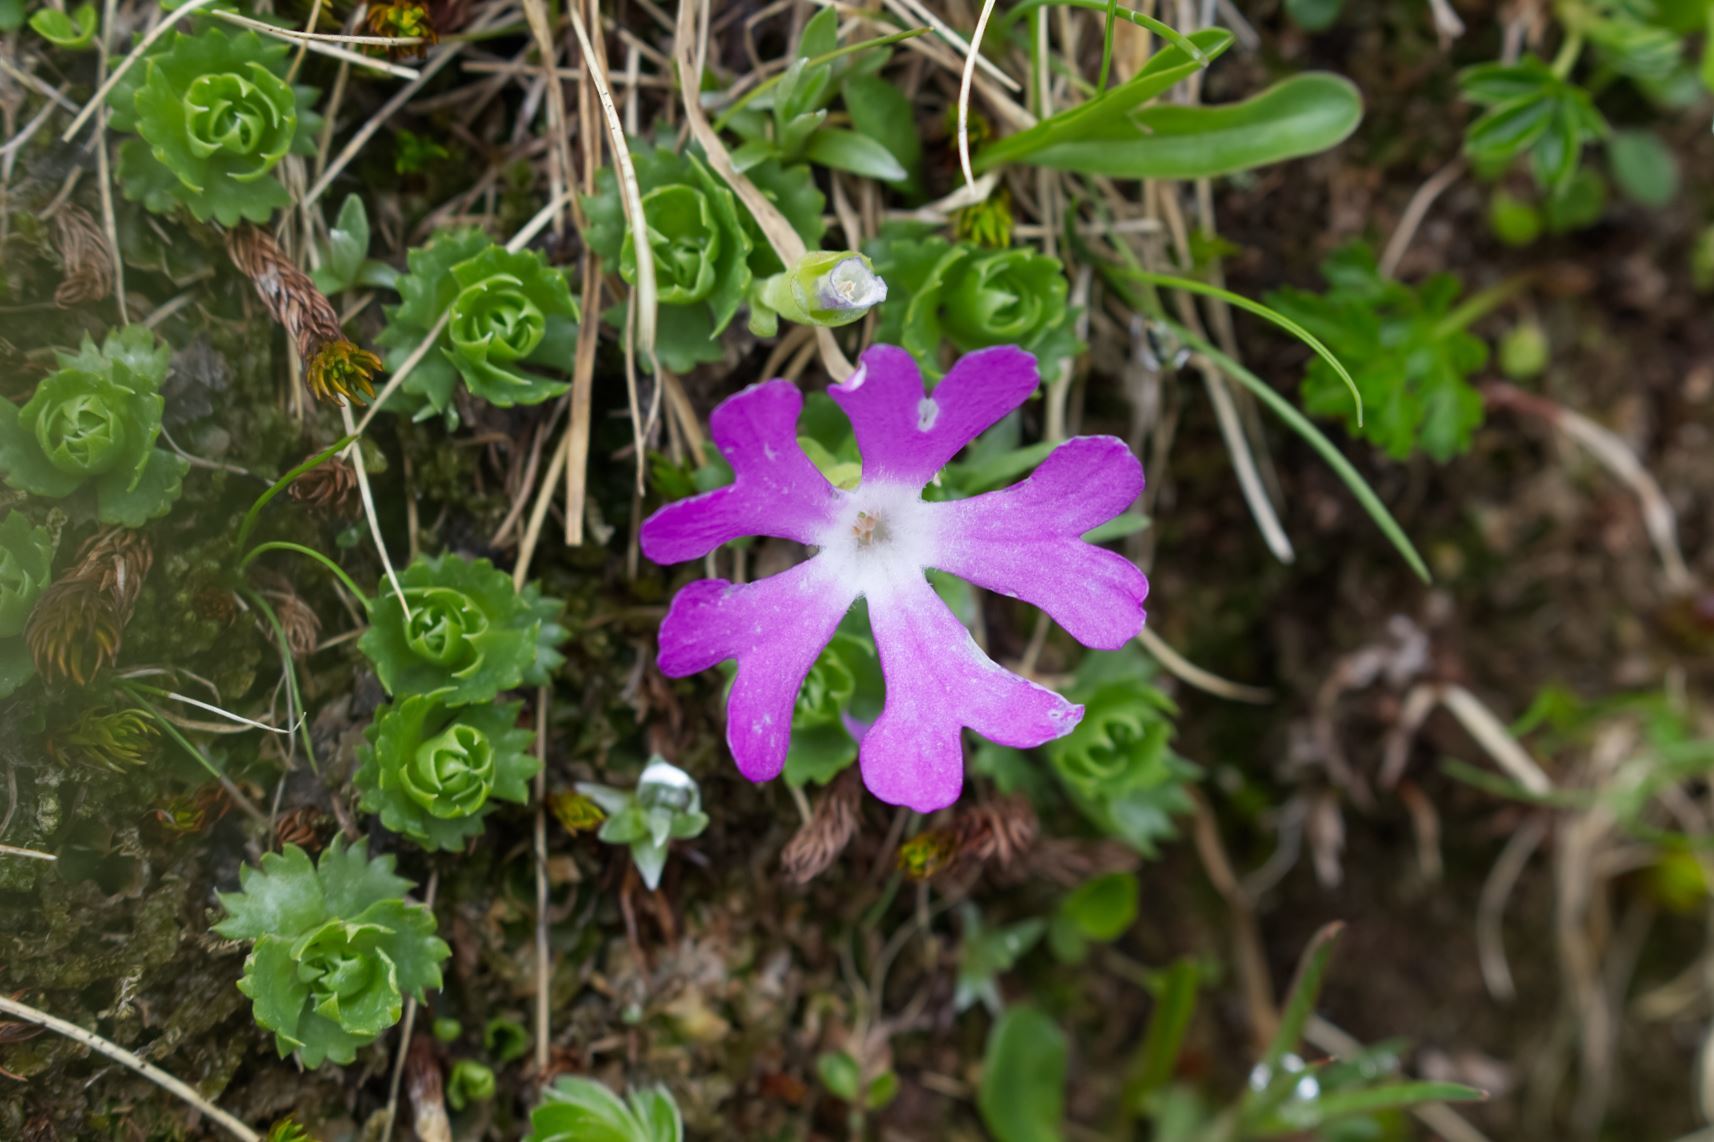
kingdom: Plantae
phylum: Tracheophyta
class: Magnoliopsida
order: Ericales
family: Primulaceae
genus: Primula
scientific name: Primula minima
